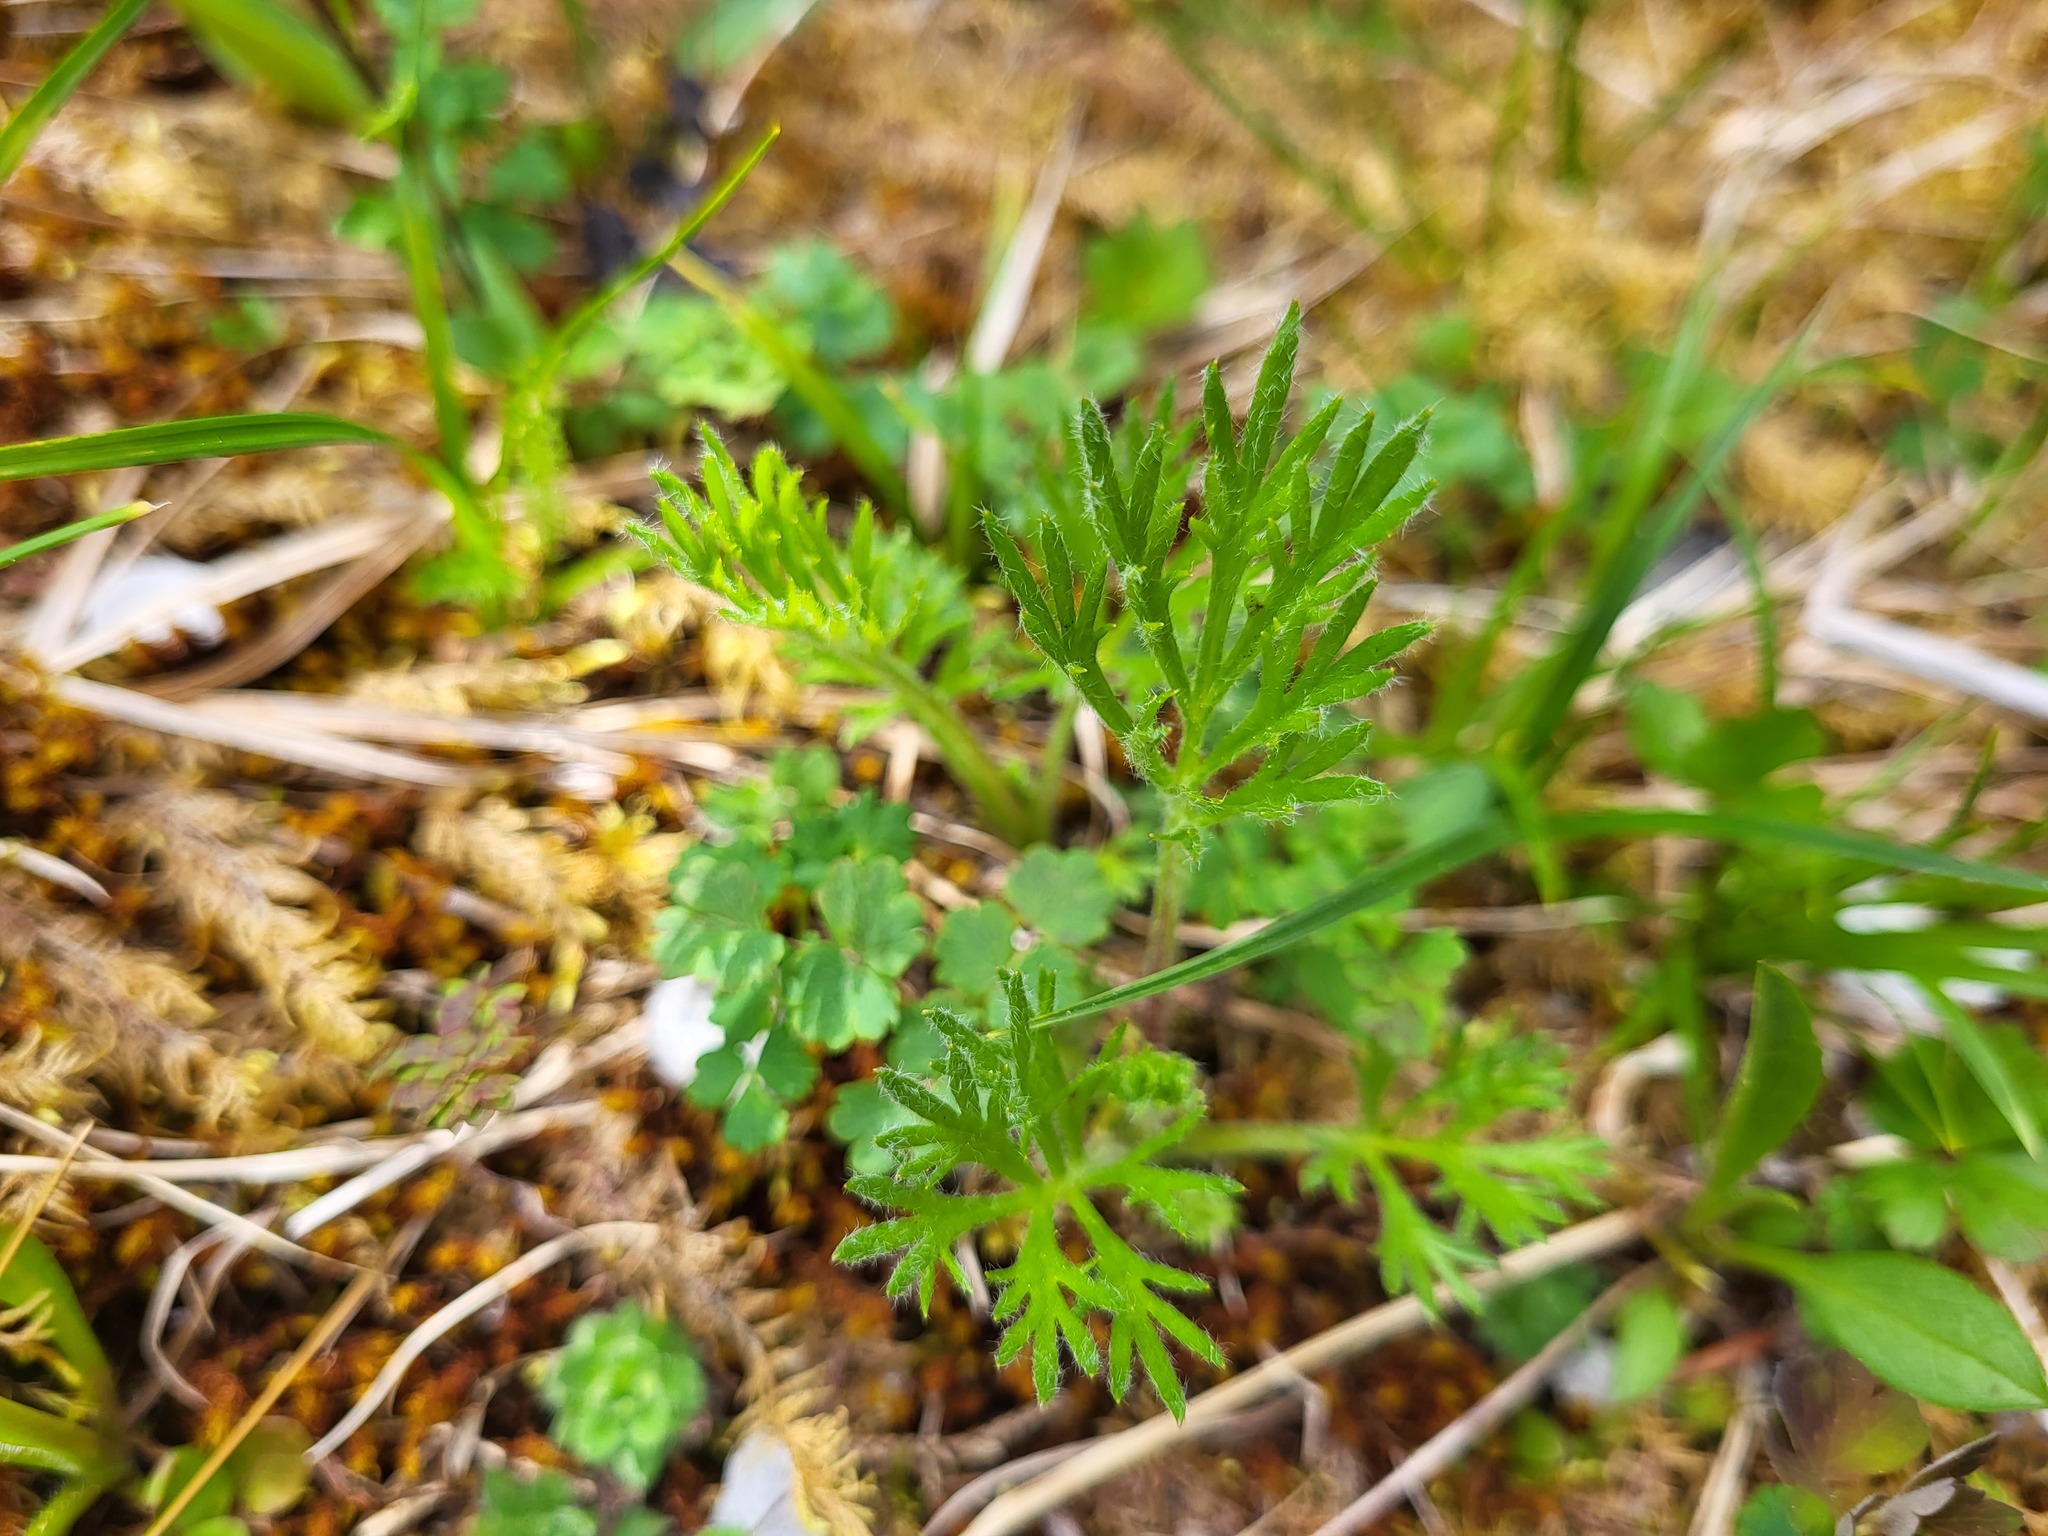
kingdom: Plantae
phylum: Tracheophyta
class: Magnoliopsida
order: Asterales
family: Asteraceae
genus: Artemisia
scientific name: Artemisia norvegica
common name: Norwegian mugwort
